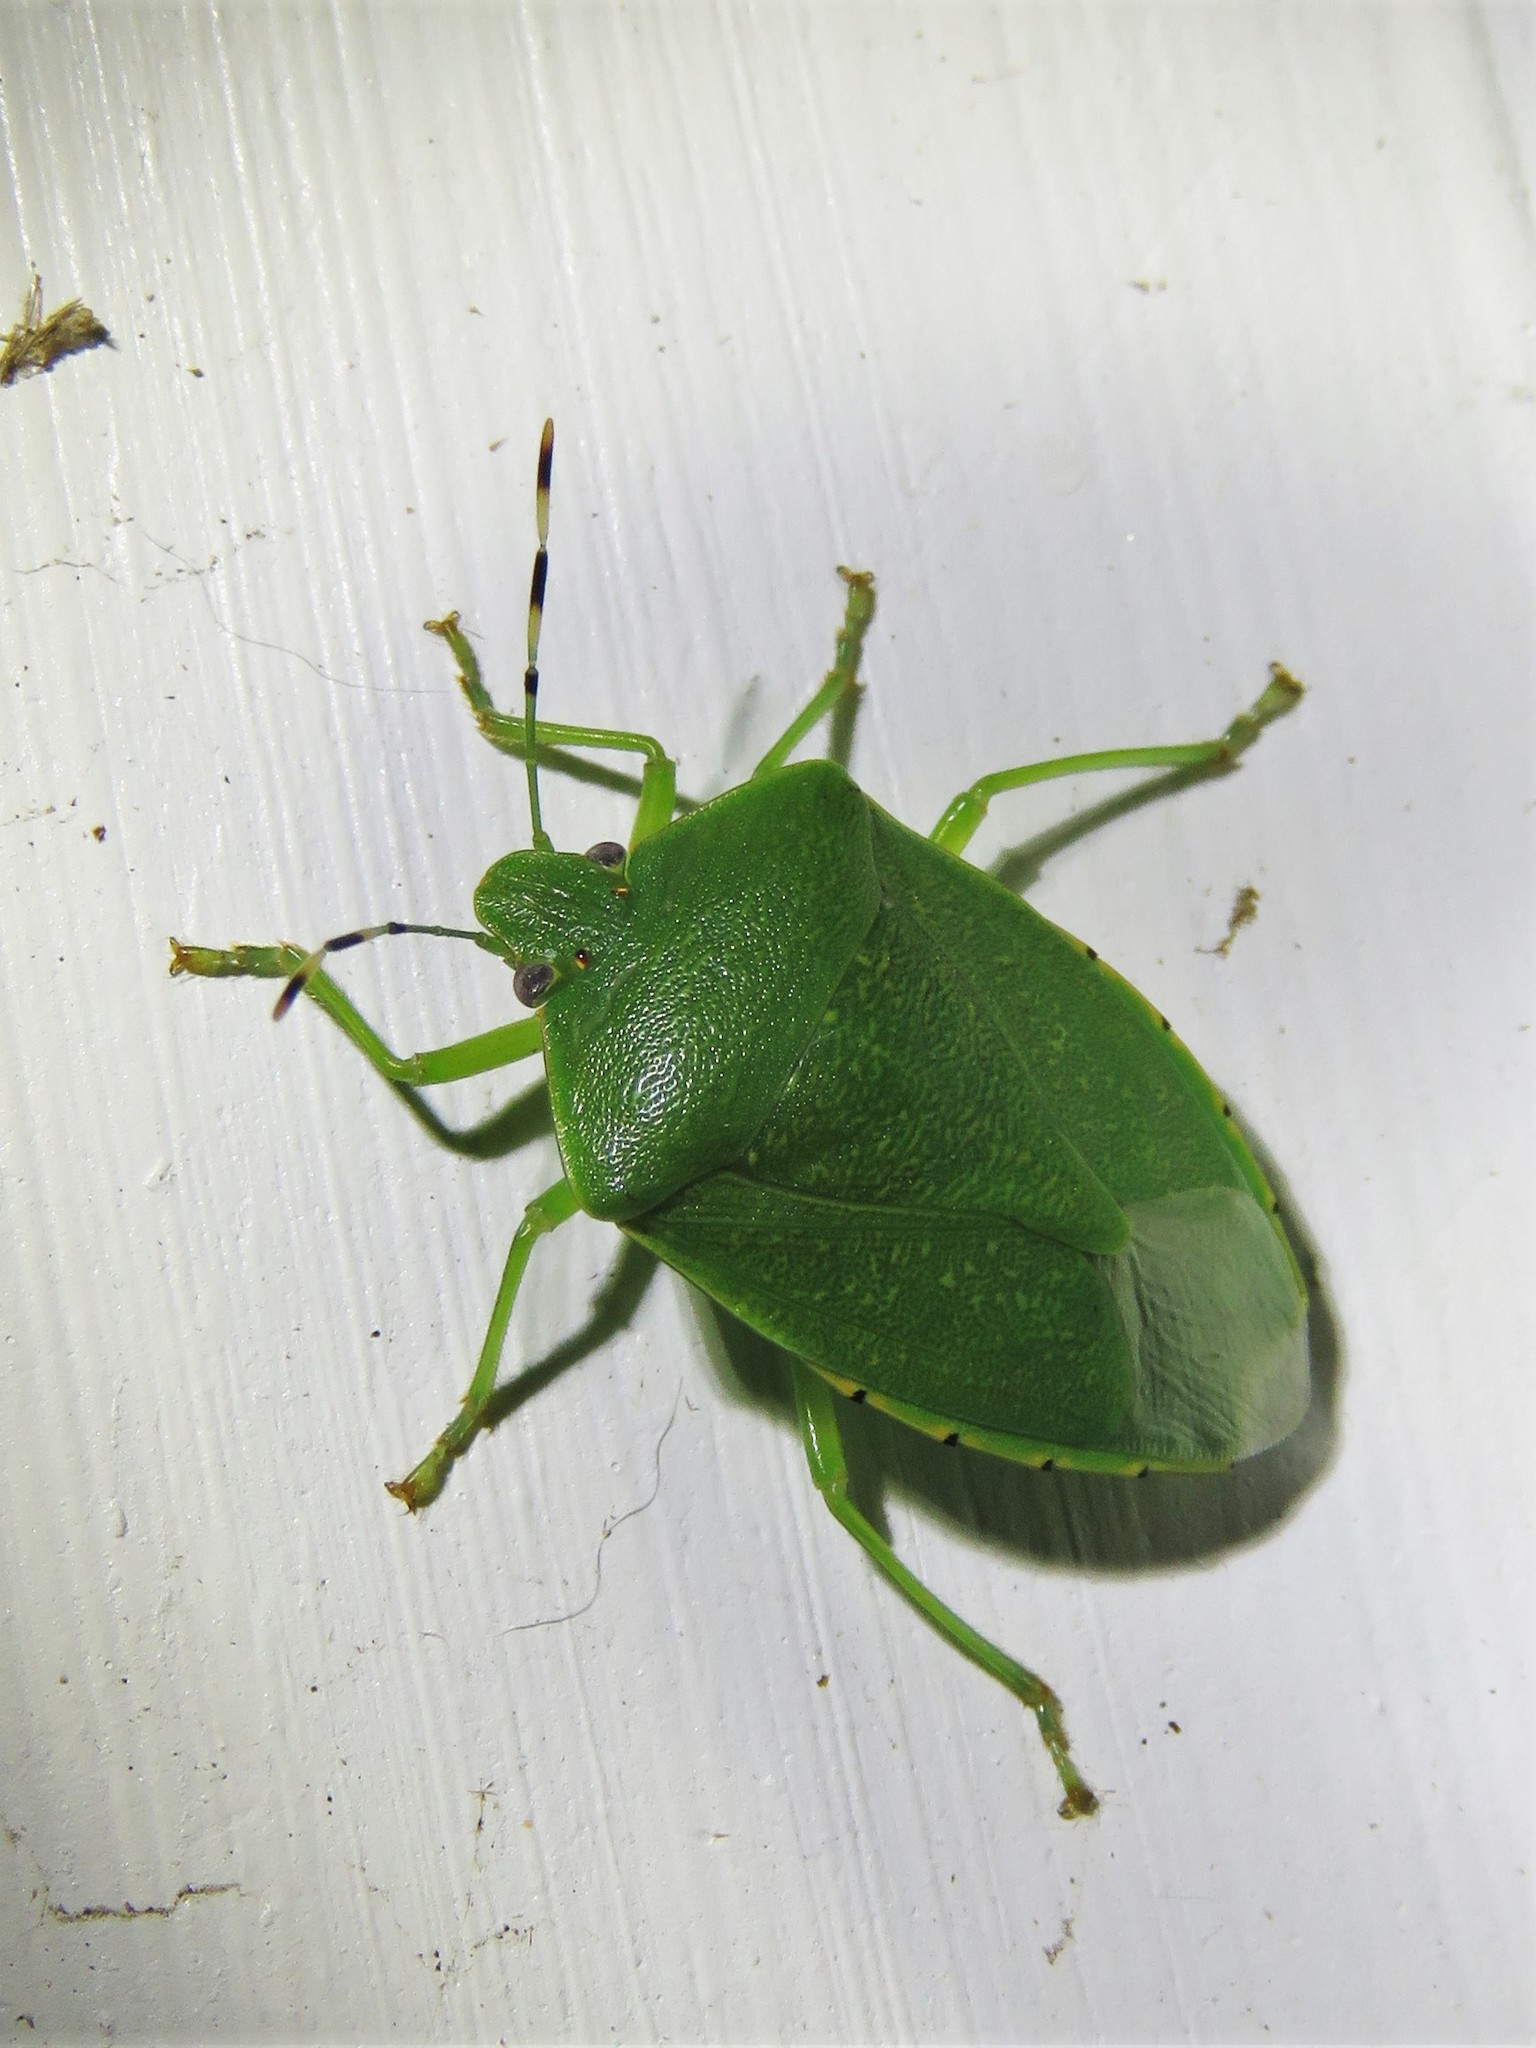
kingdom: Animalia
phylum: Arthropoda
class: Insecta
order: Hemiptera
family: Pentatomidae
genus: Chinavia
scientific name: Chinavia hilaris
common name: Green stink bug
